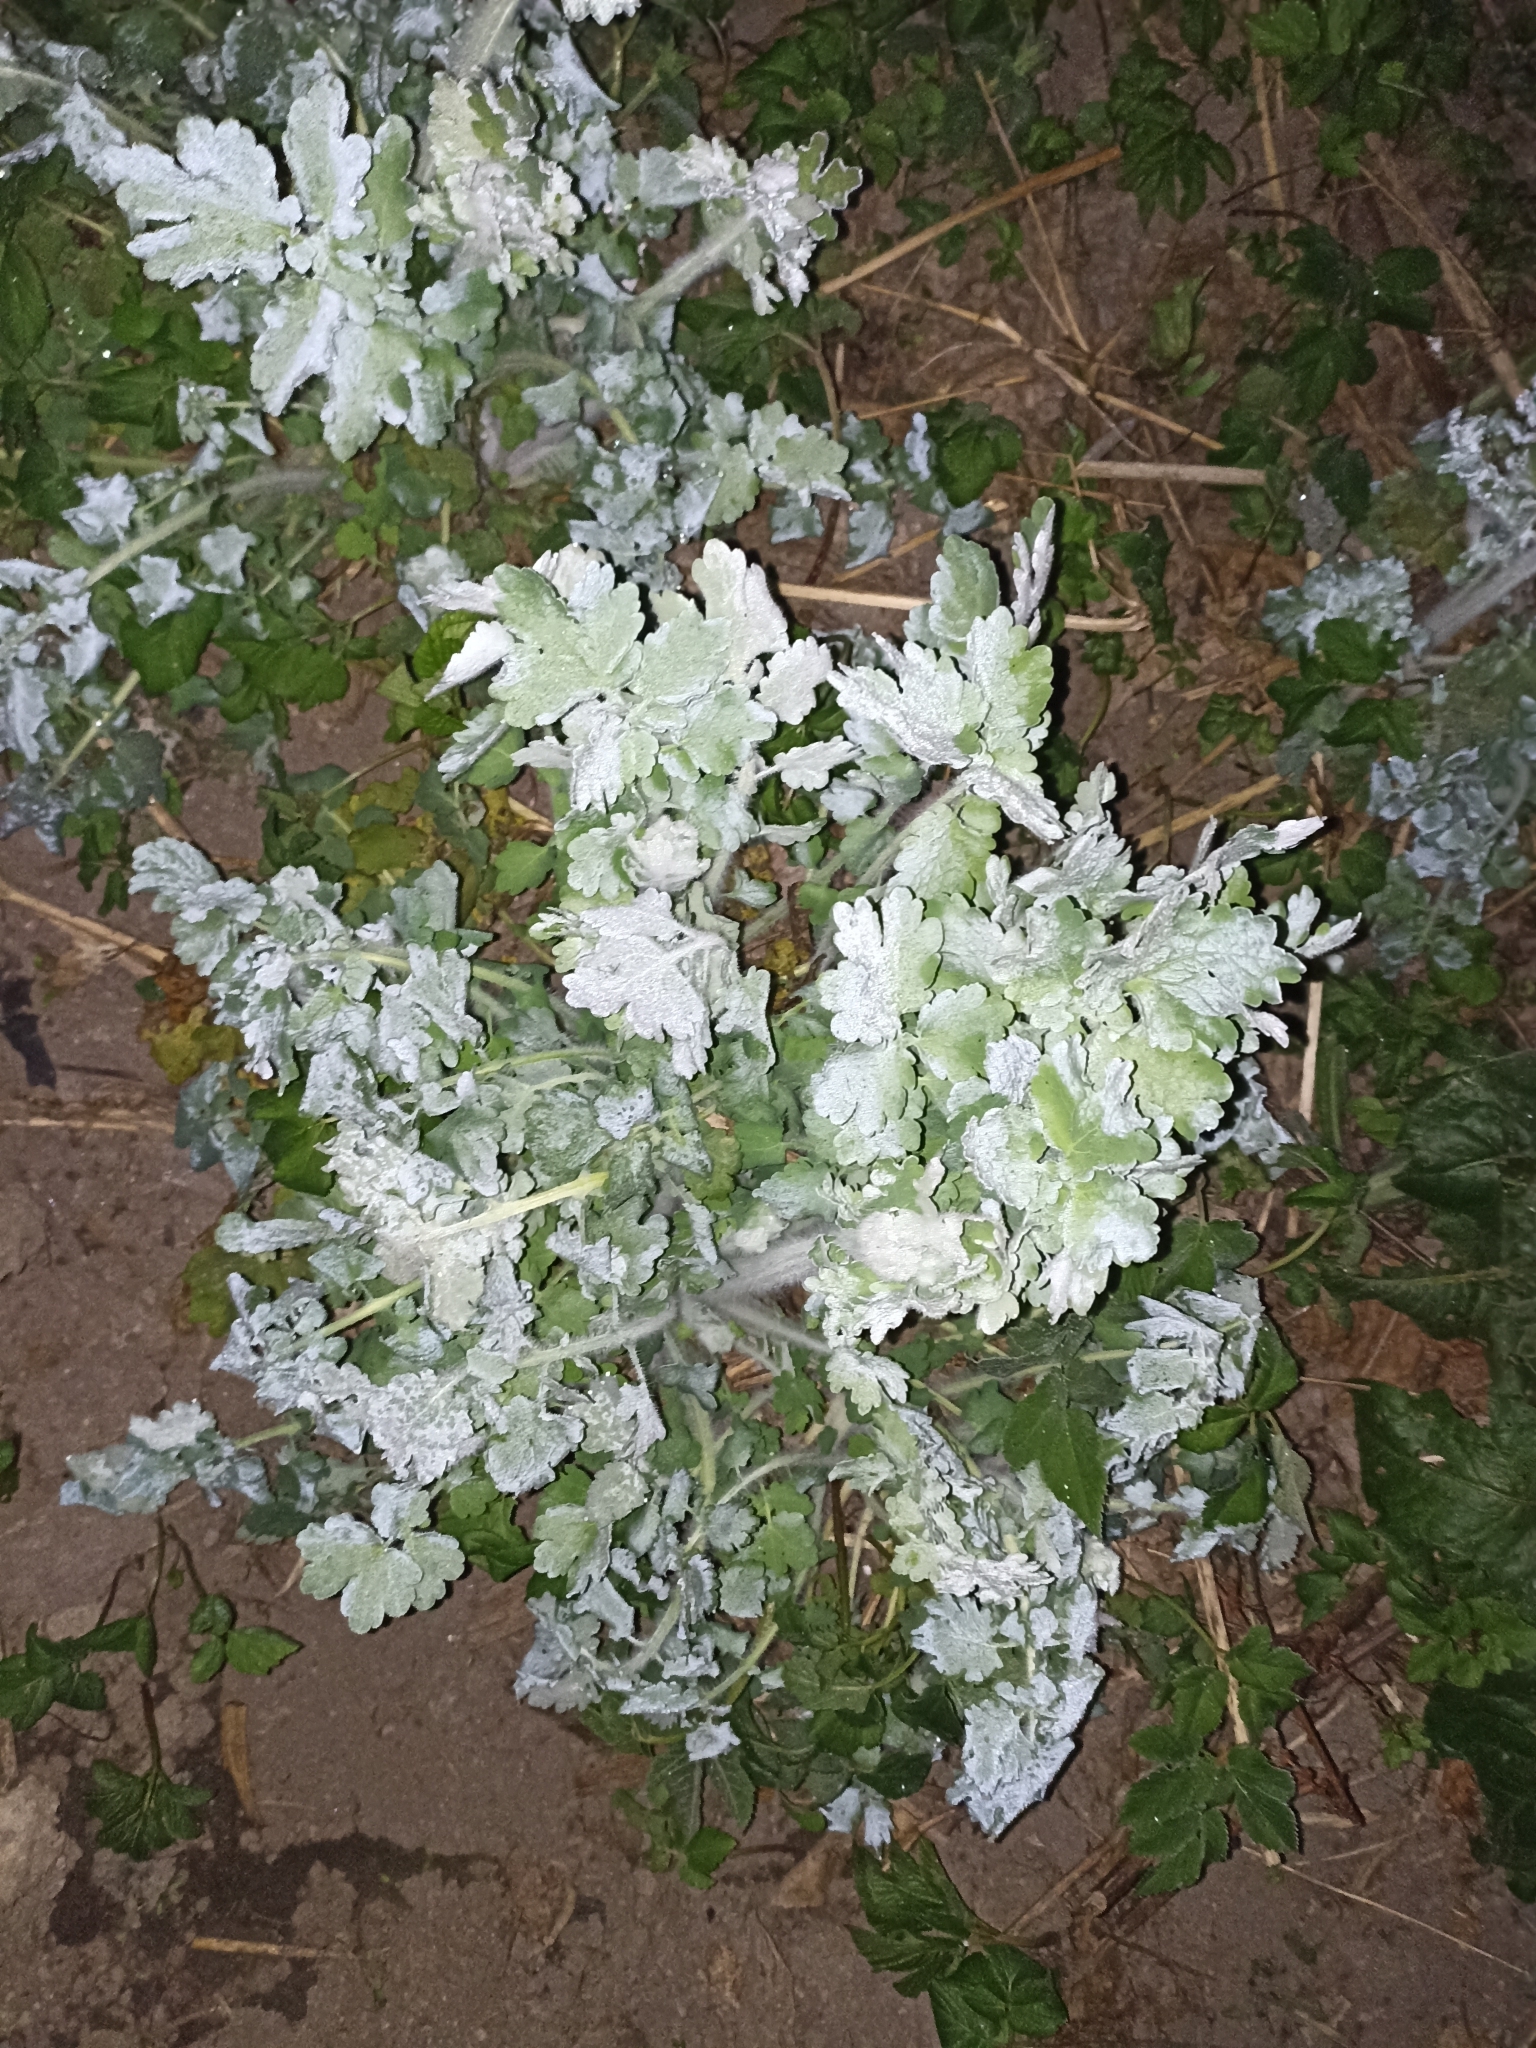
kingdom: Plantae
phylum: Tracheophyta
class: Magnoliopsida
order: Ranunculales
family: Papaveraceae
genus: Chelidonium
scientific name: Chelidonium majus
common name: Greater celandine
